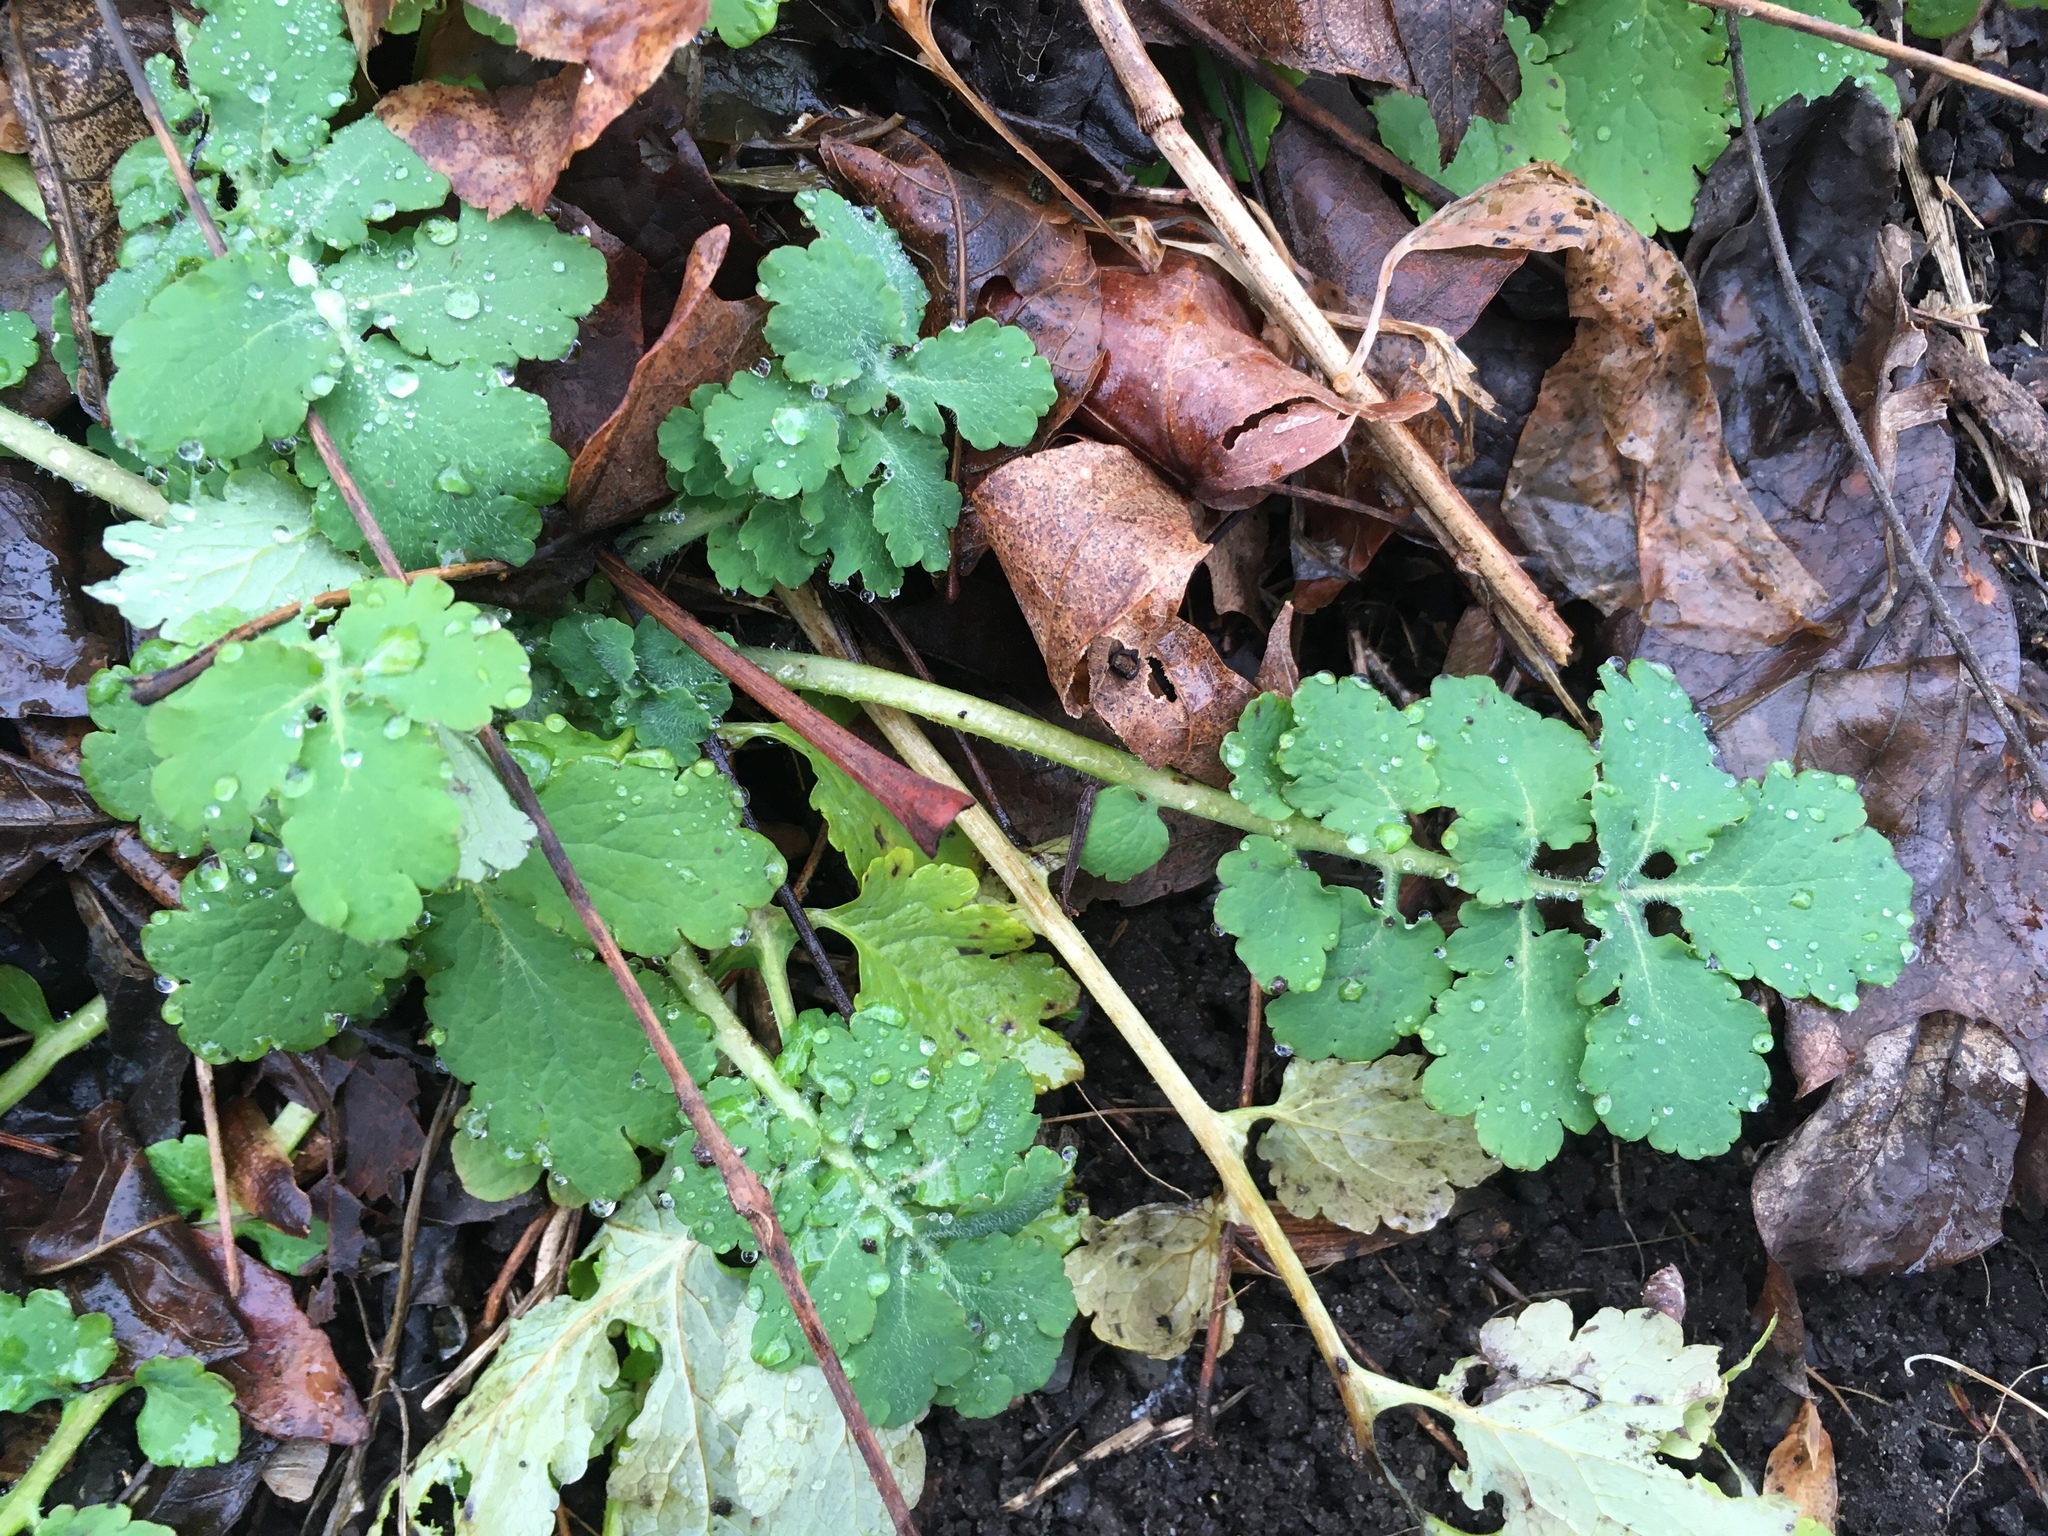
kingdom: Plantae
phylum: Tracheophyta
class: Magnoliopsida
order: Ranunculales
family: Papaveraceae
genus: Chelidonium
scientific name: Chelidonium majus
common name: Greater celandine
